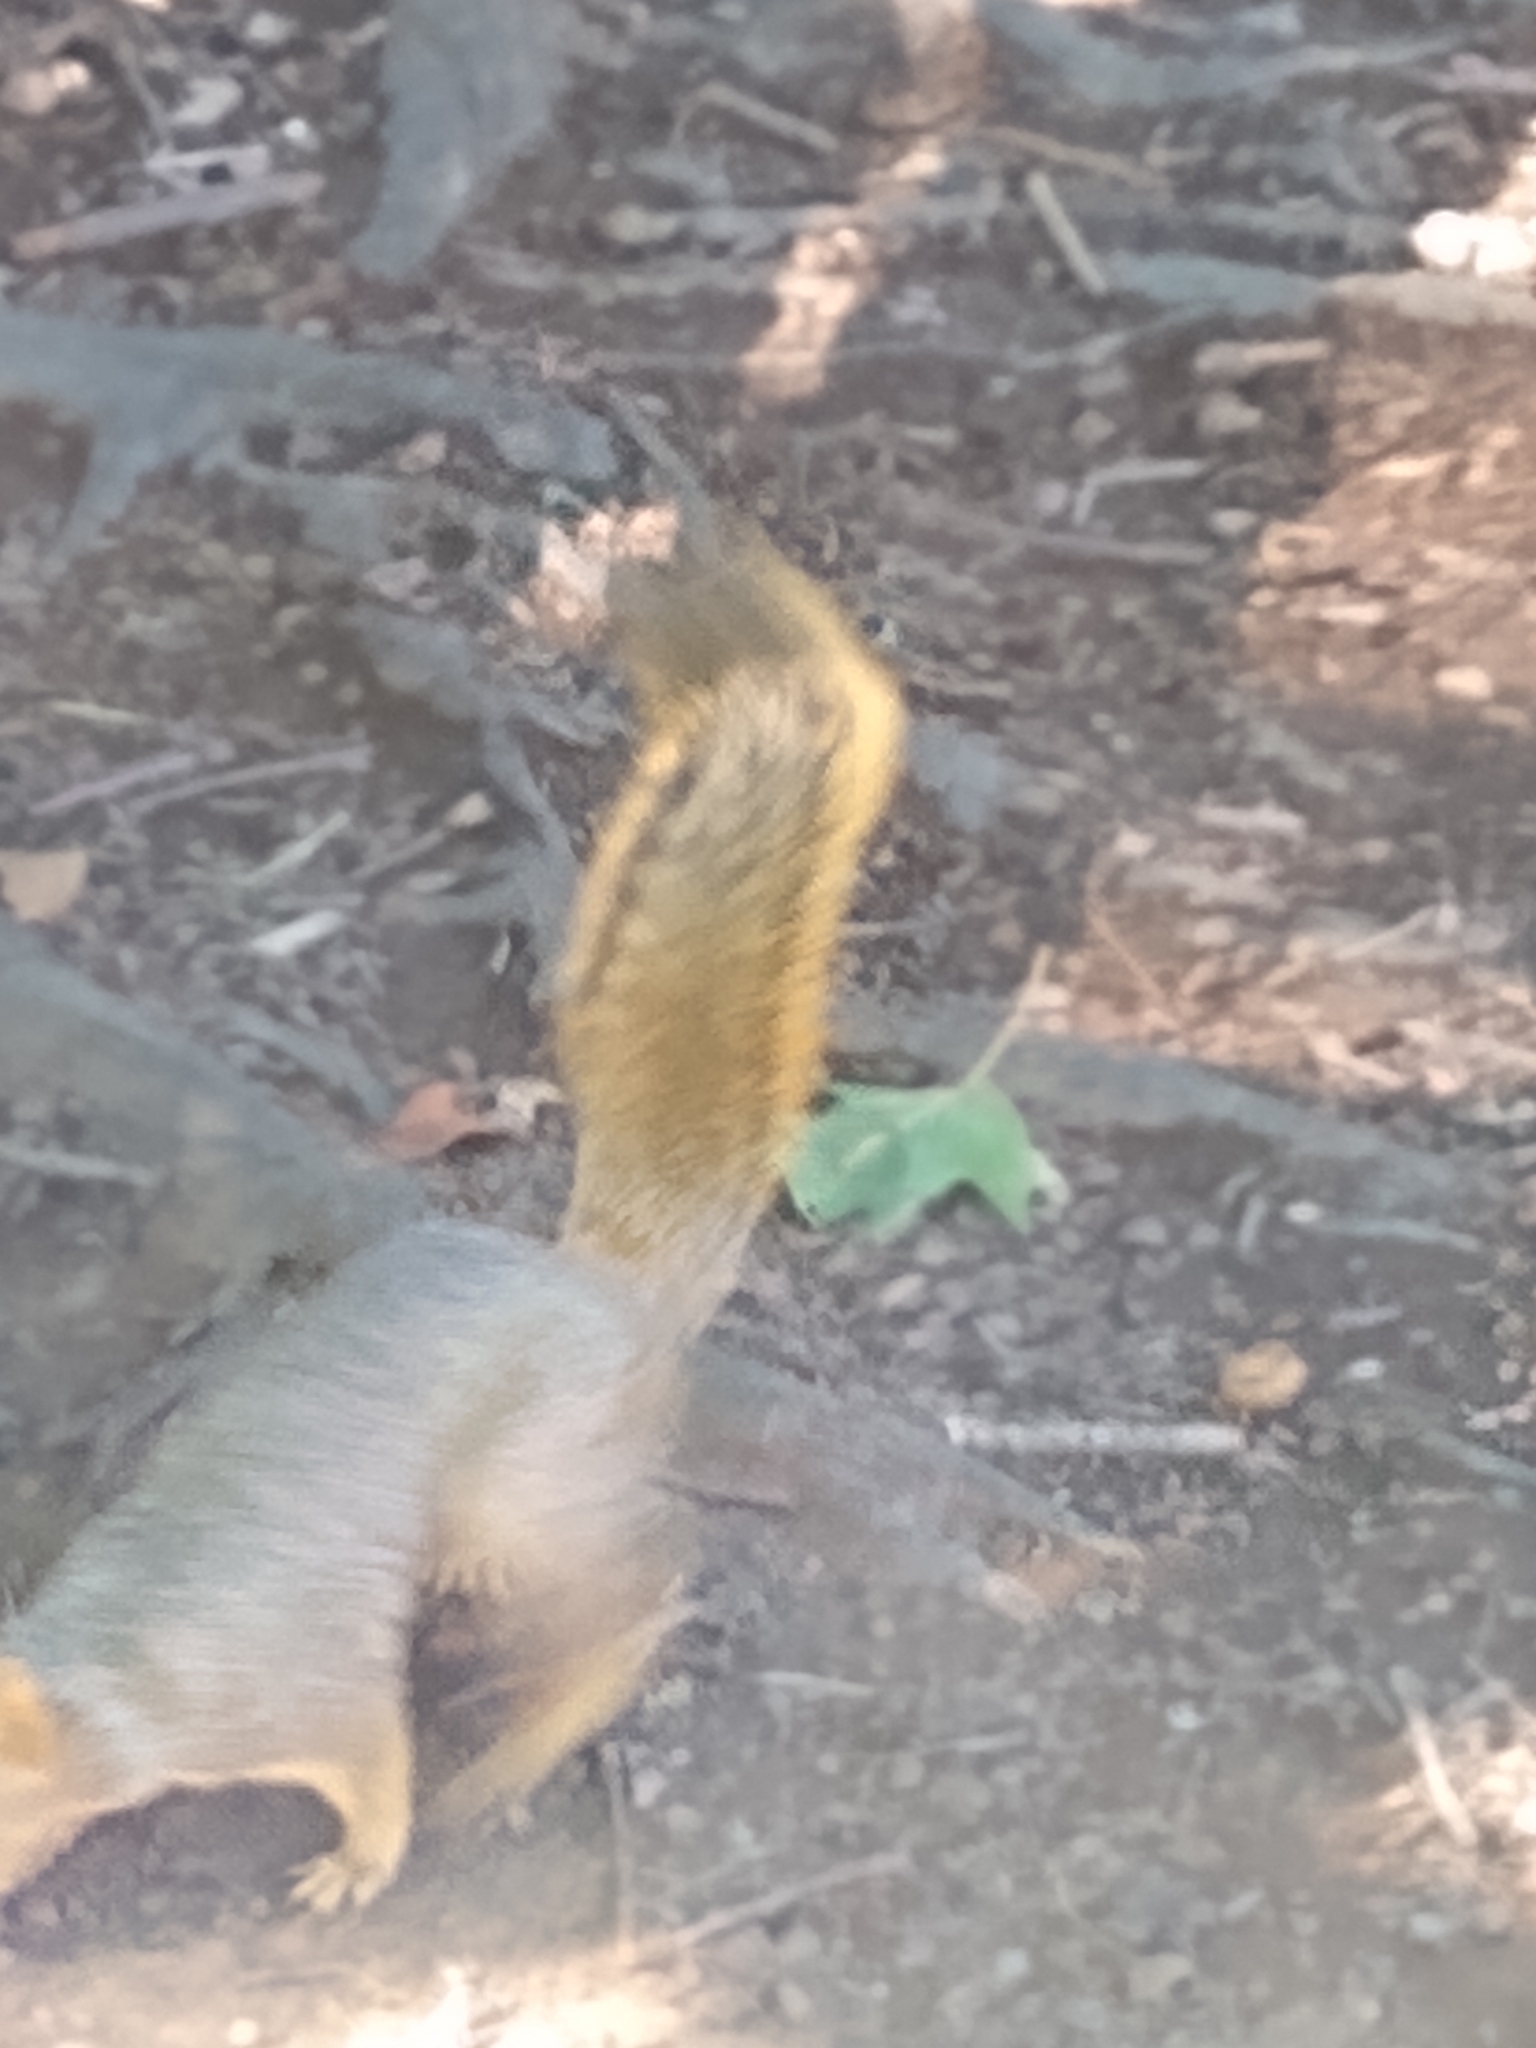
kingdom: Animalia
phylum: Chordata
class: Mammalia
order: Rodentia
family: Sciuridae
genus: Sciurus
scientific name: Sciurus niger
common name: Fox squirrel
